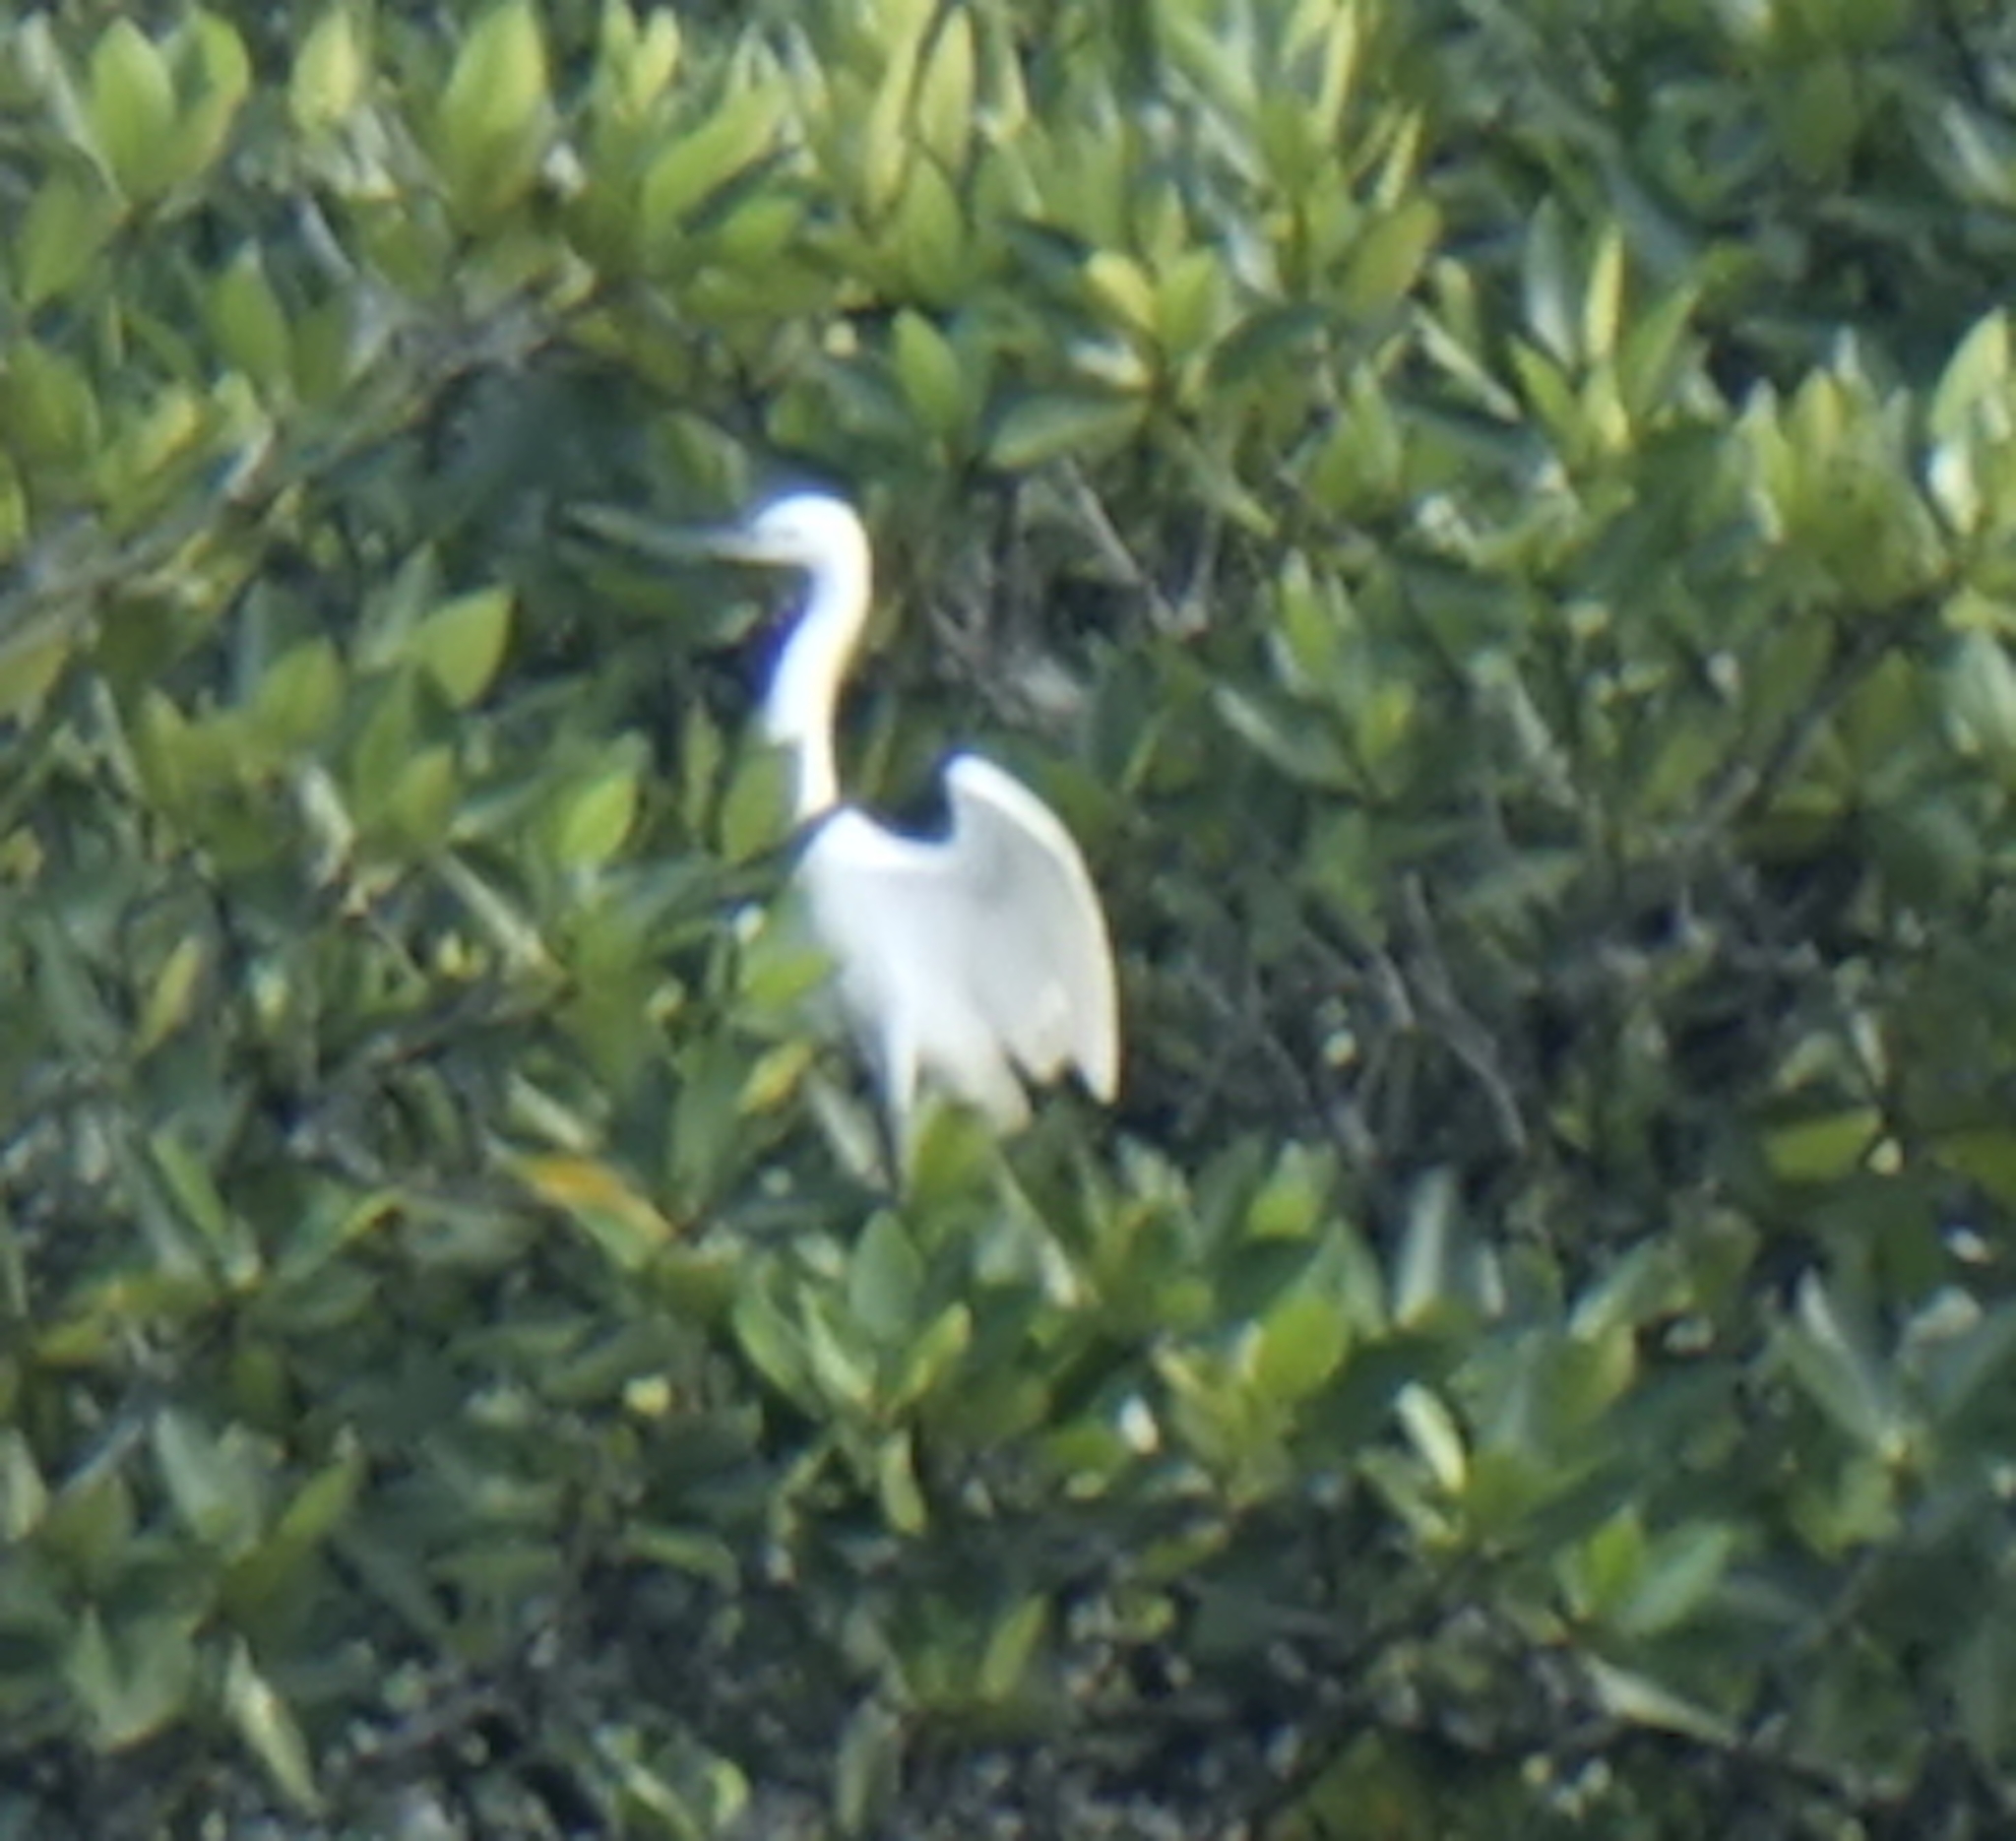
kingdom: Animalia
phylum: Chordata
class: Aves
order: Pelecaniformes
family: Ardeidae
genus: Egretta
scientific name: Egretta garzetta
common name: Little egret
